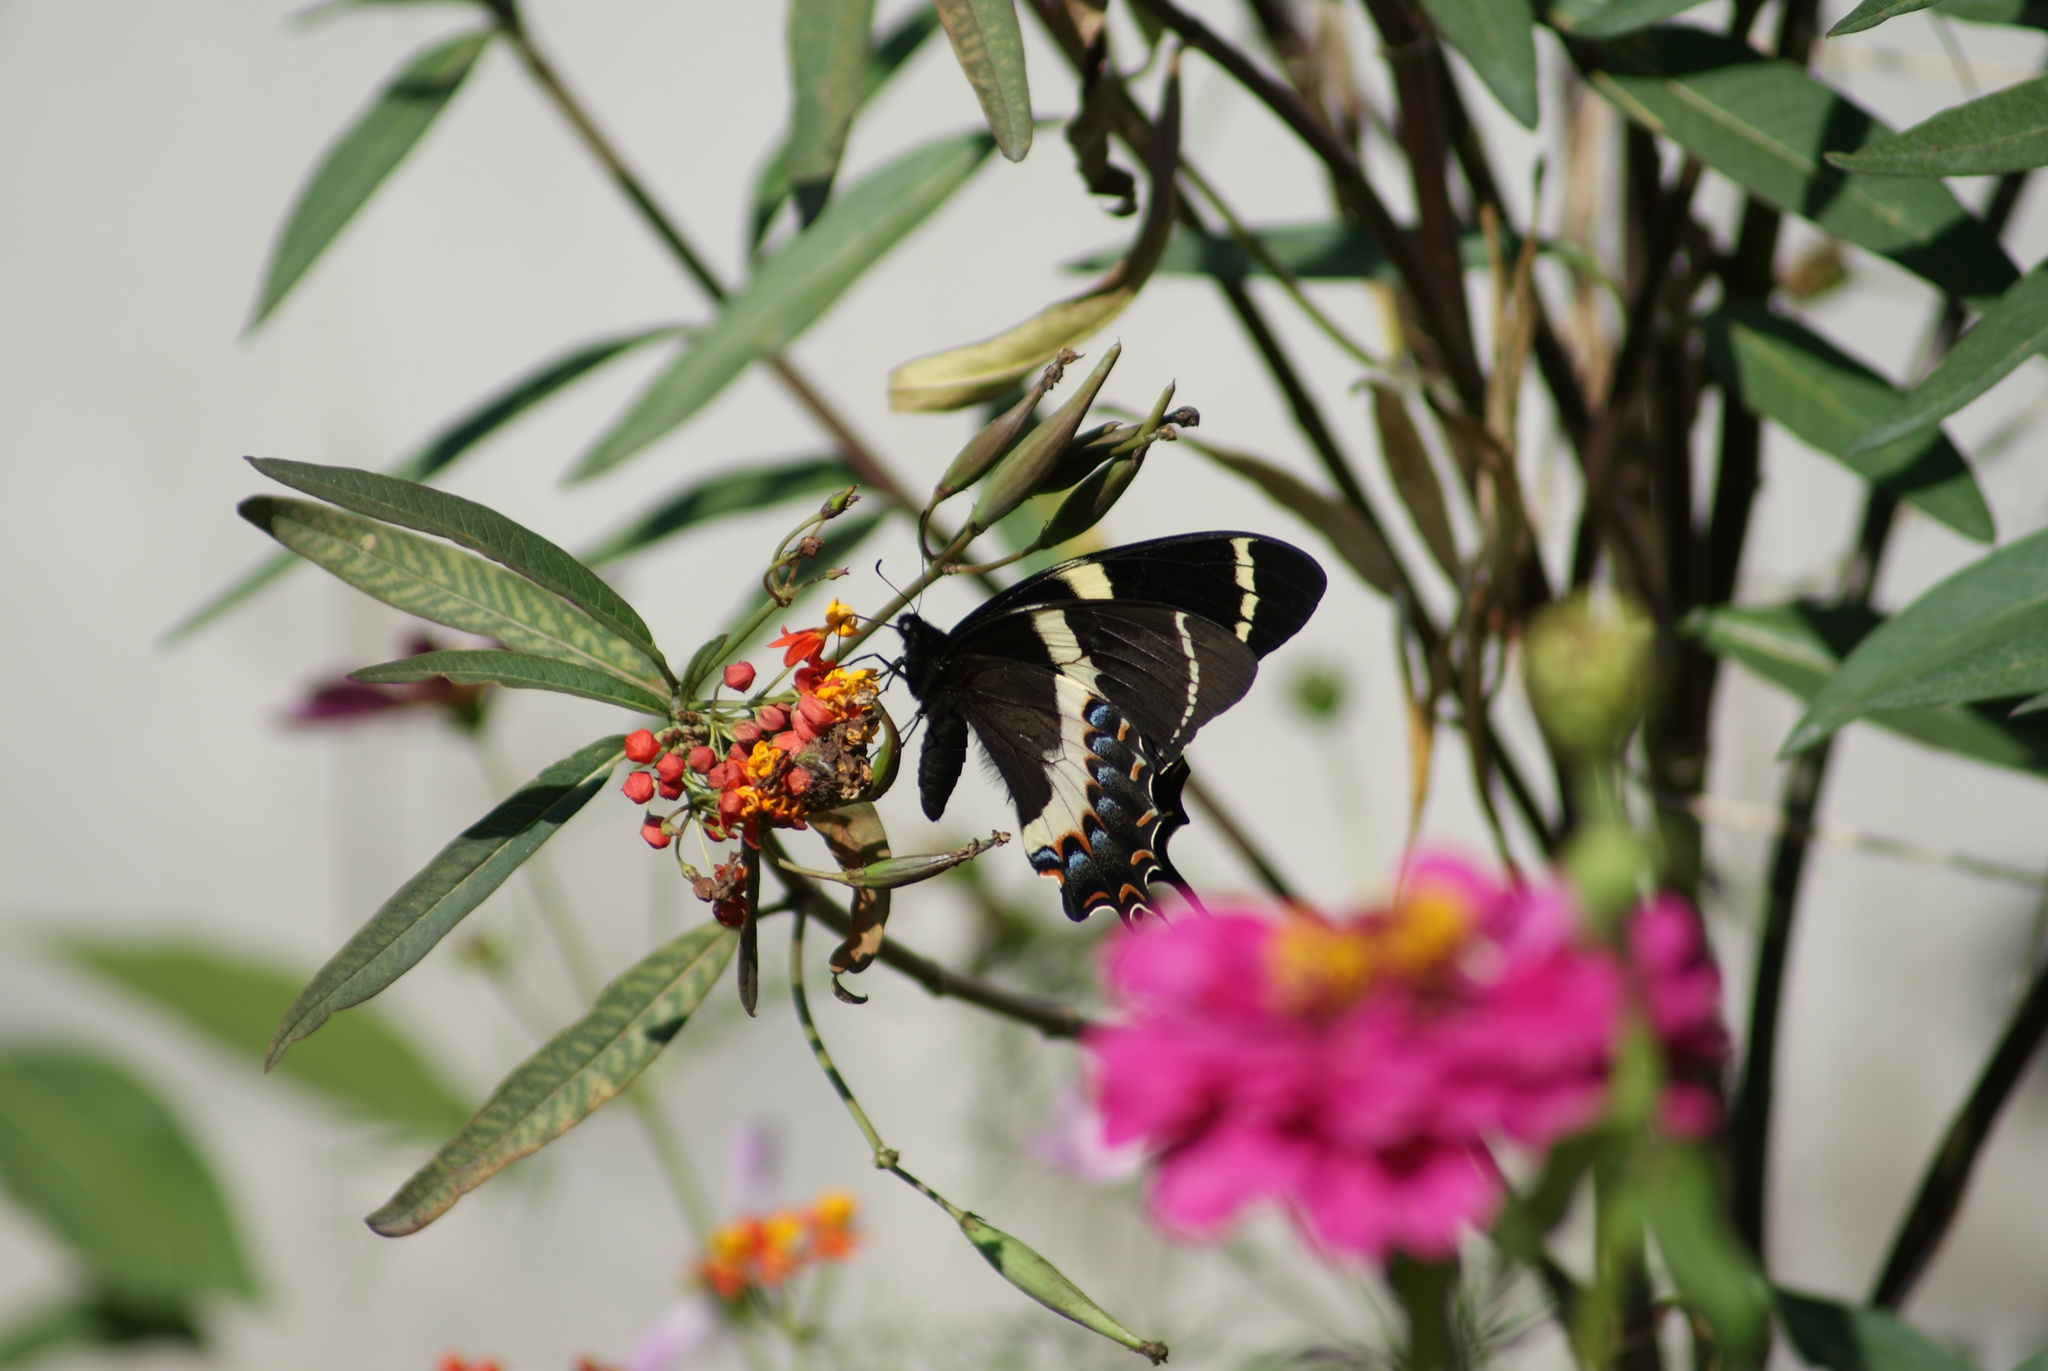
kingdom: Animalia
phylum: Arthropoda
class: Insecta
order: Lepidoptera
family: Papilionidae
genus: Papilio
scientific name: Papilio garamas
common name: Magnificent swallowtail
